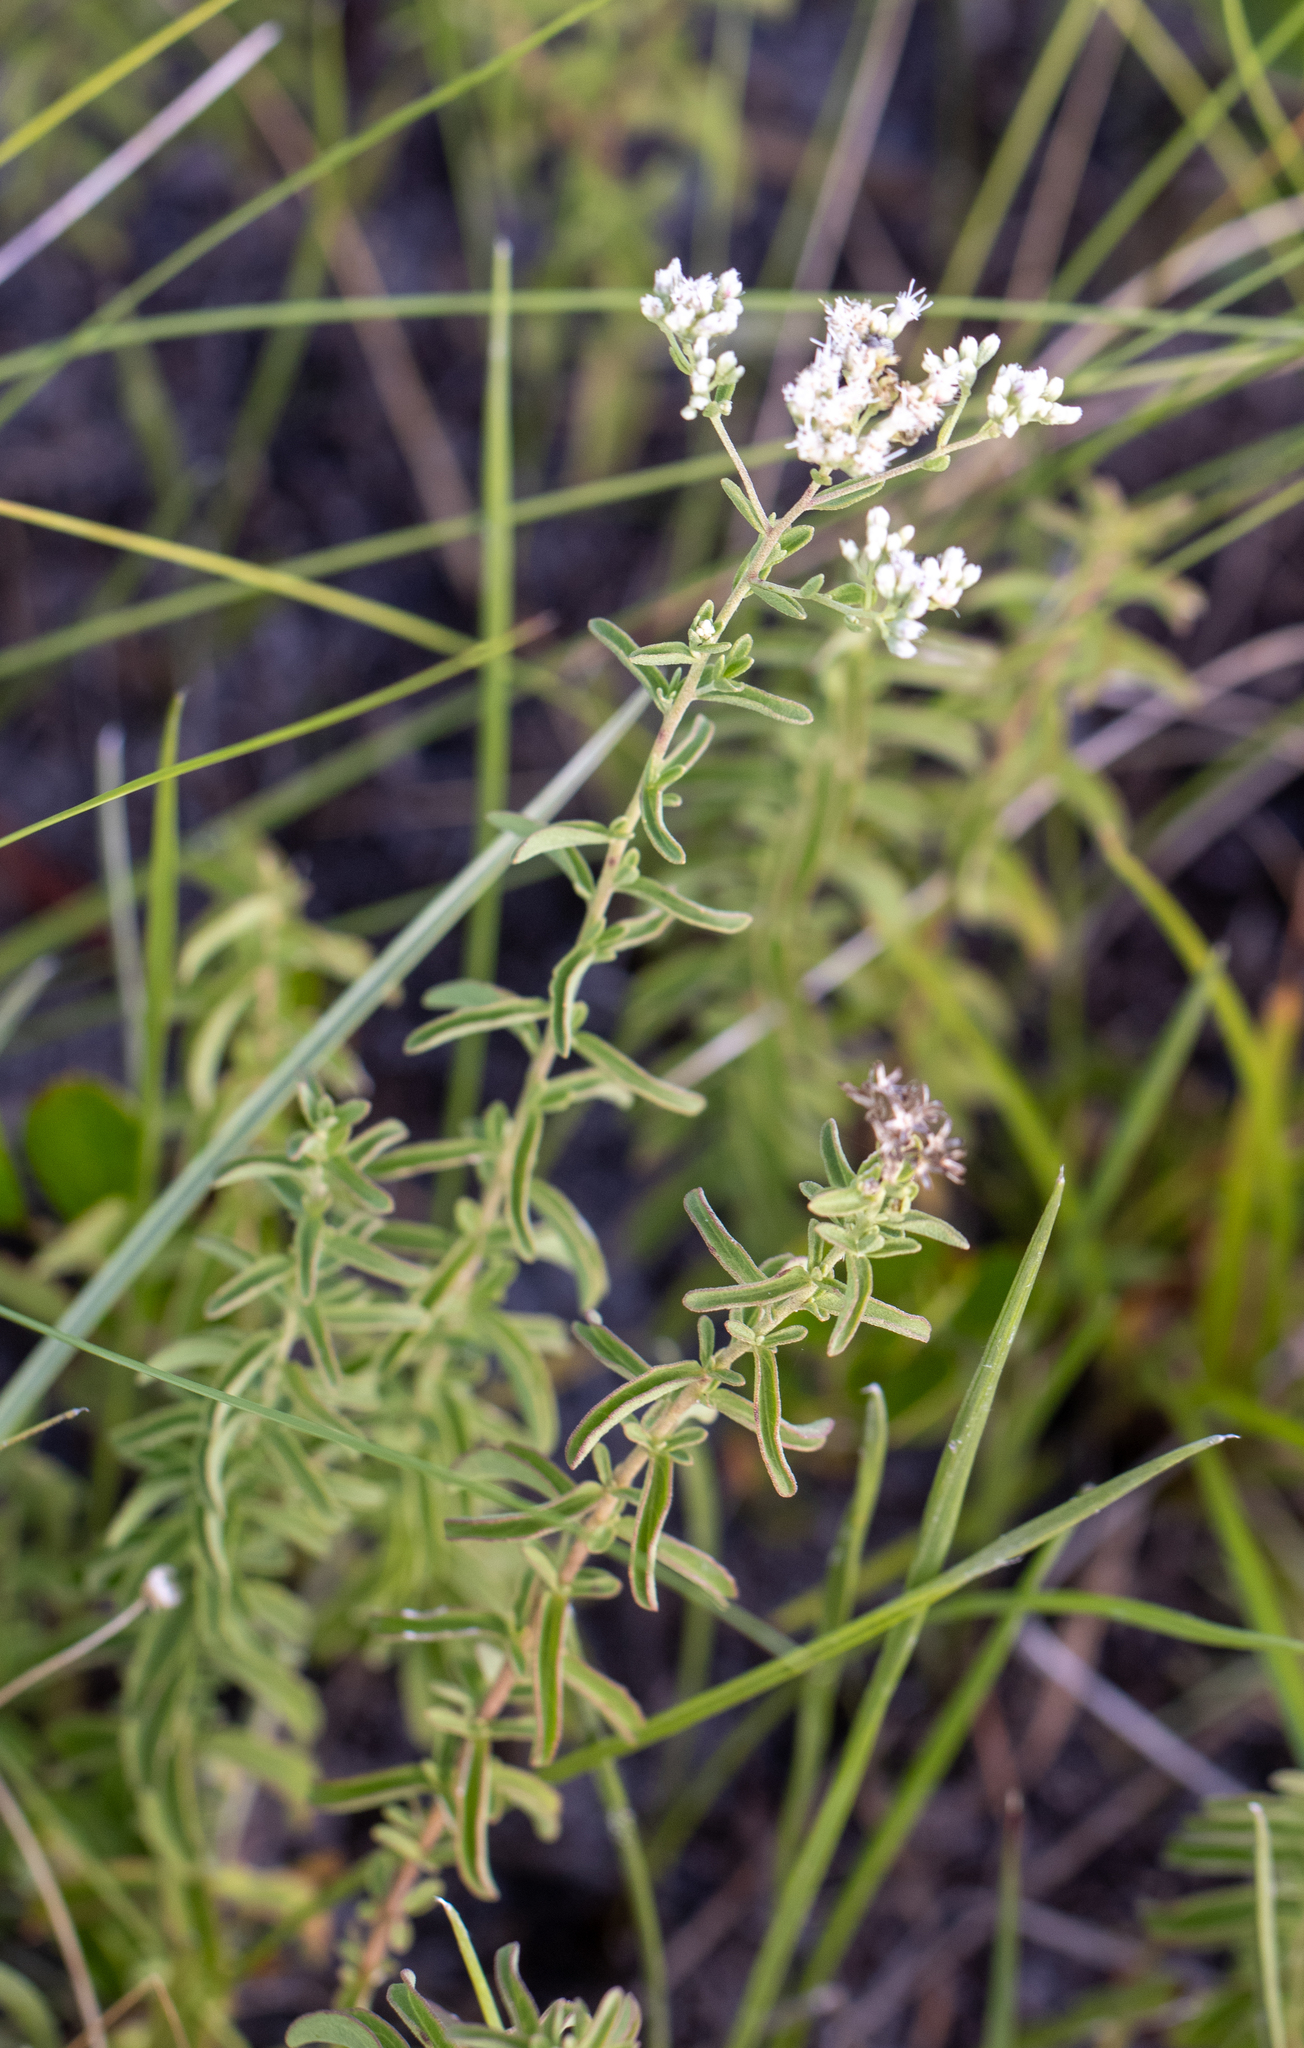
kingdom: Plantae
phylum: Tracheophyta
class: Magnoliopsida
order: Asterales
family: Asteraceae
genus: Eupatorium
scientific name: Eupatorium mohrii
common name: Mohr's thoroughwort
